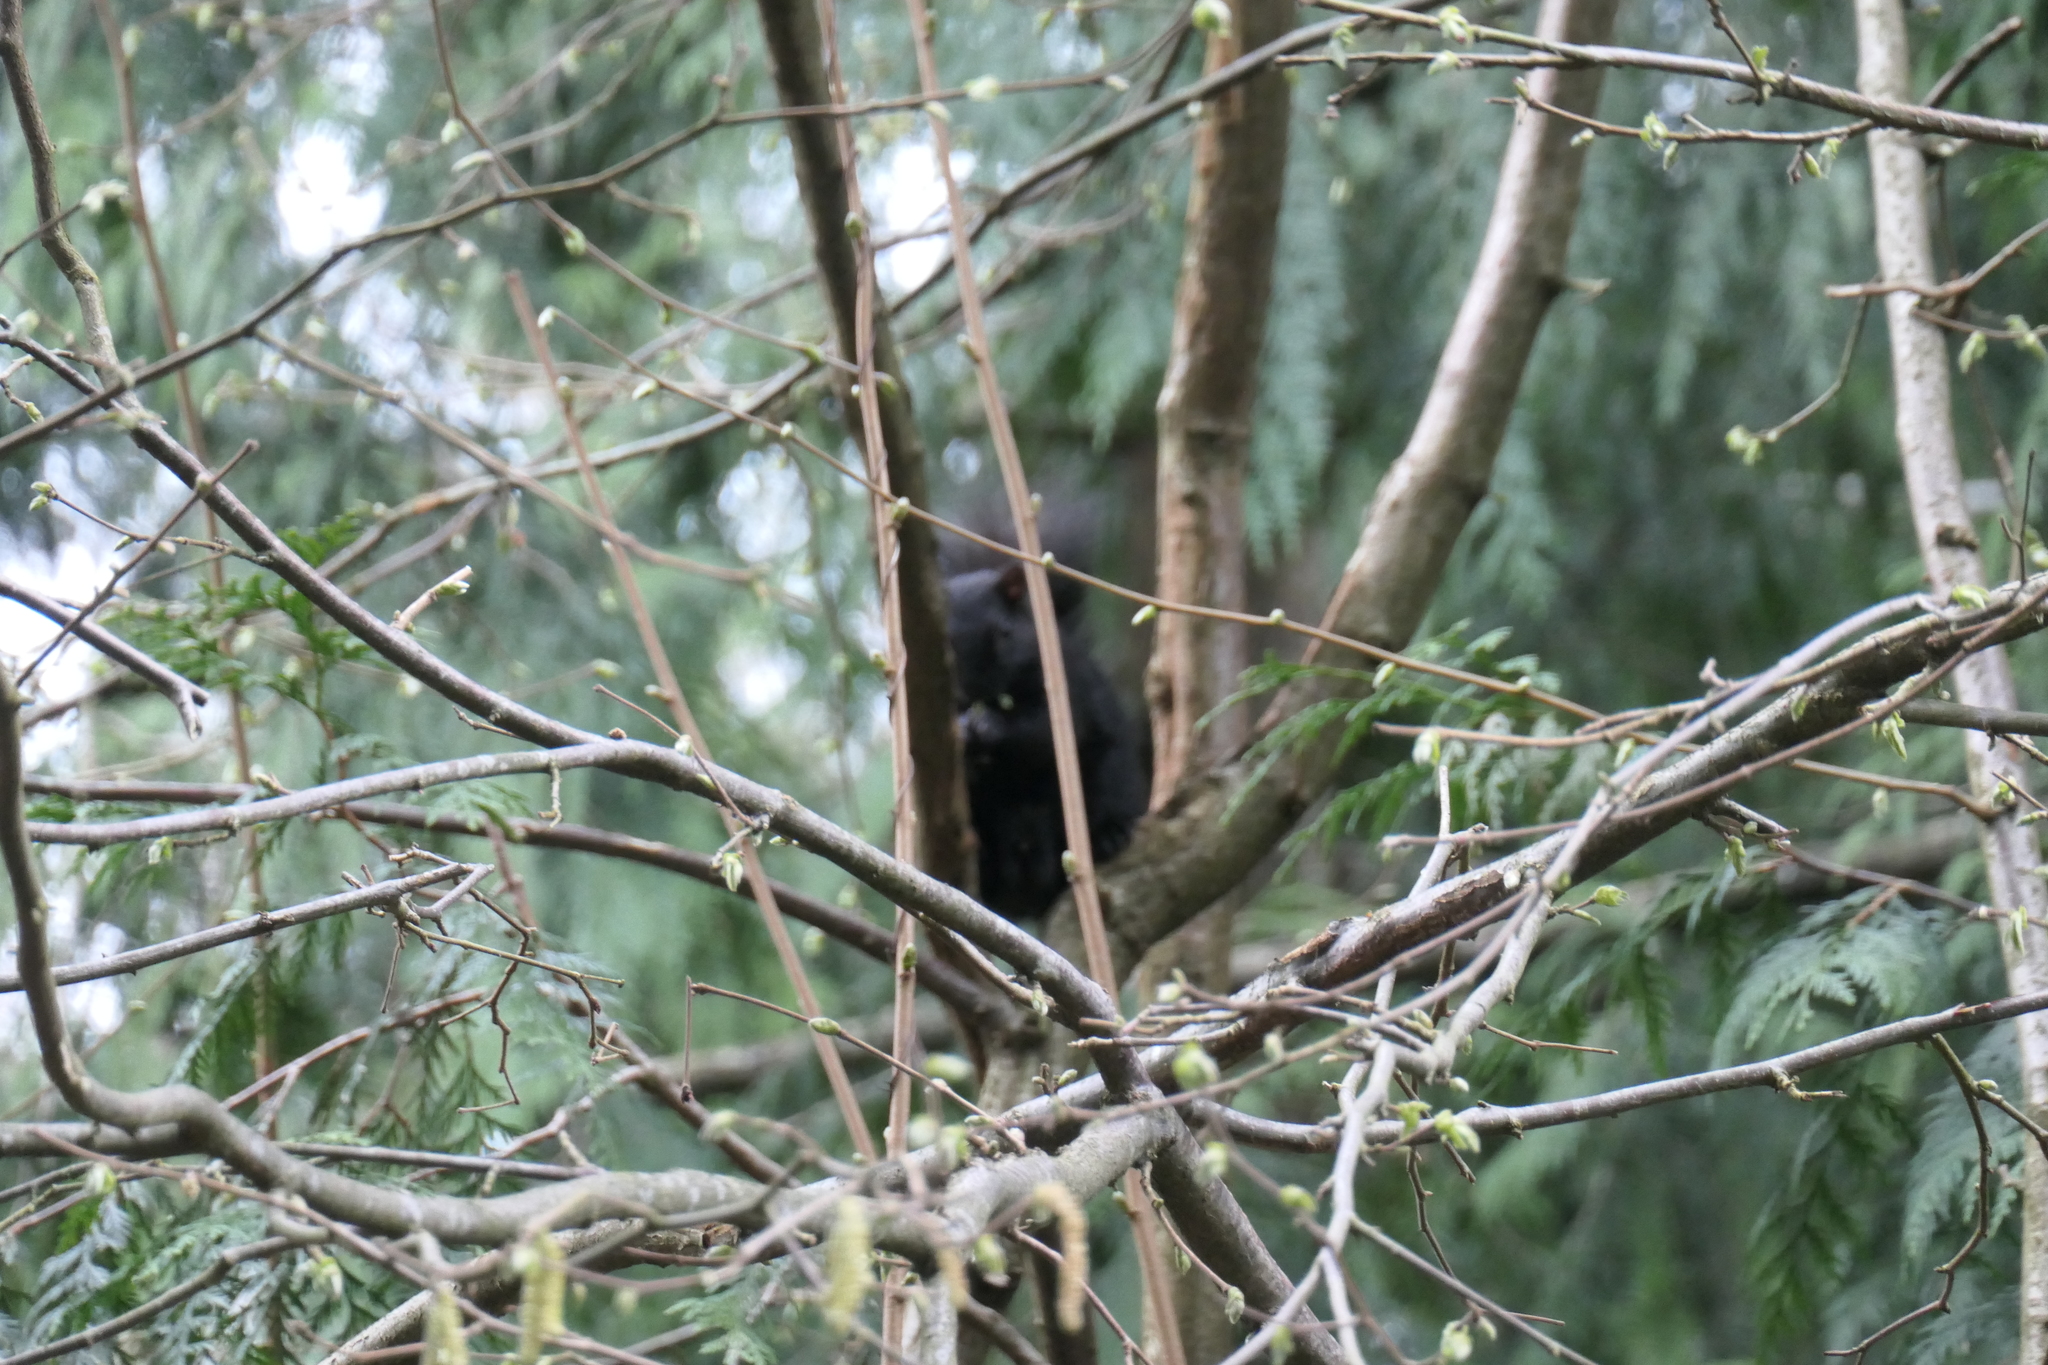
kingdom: Animalia
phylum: Chordata
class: Mammalia
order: Rodentia
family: Sciuridae
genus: Sciurus
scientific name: Sciurus carolinensis
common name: Eastern gray squirrel
